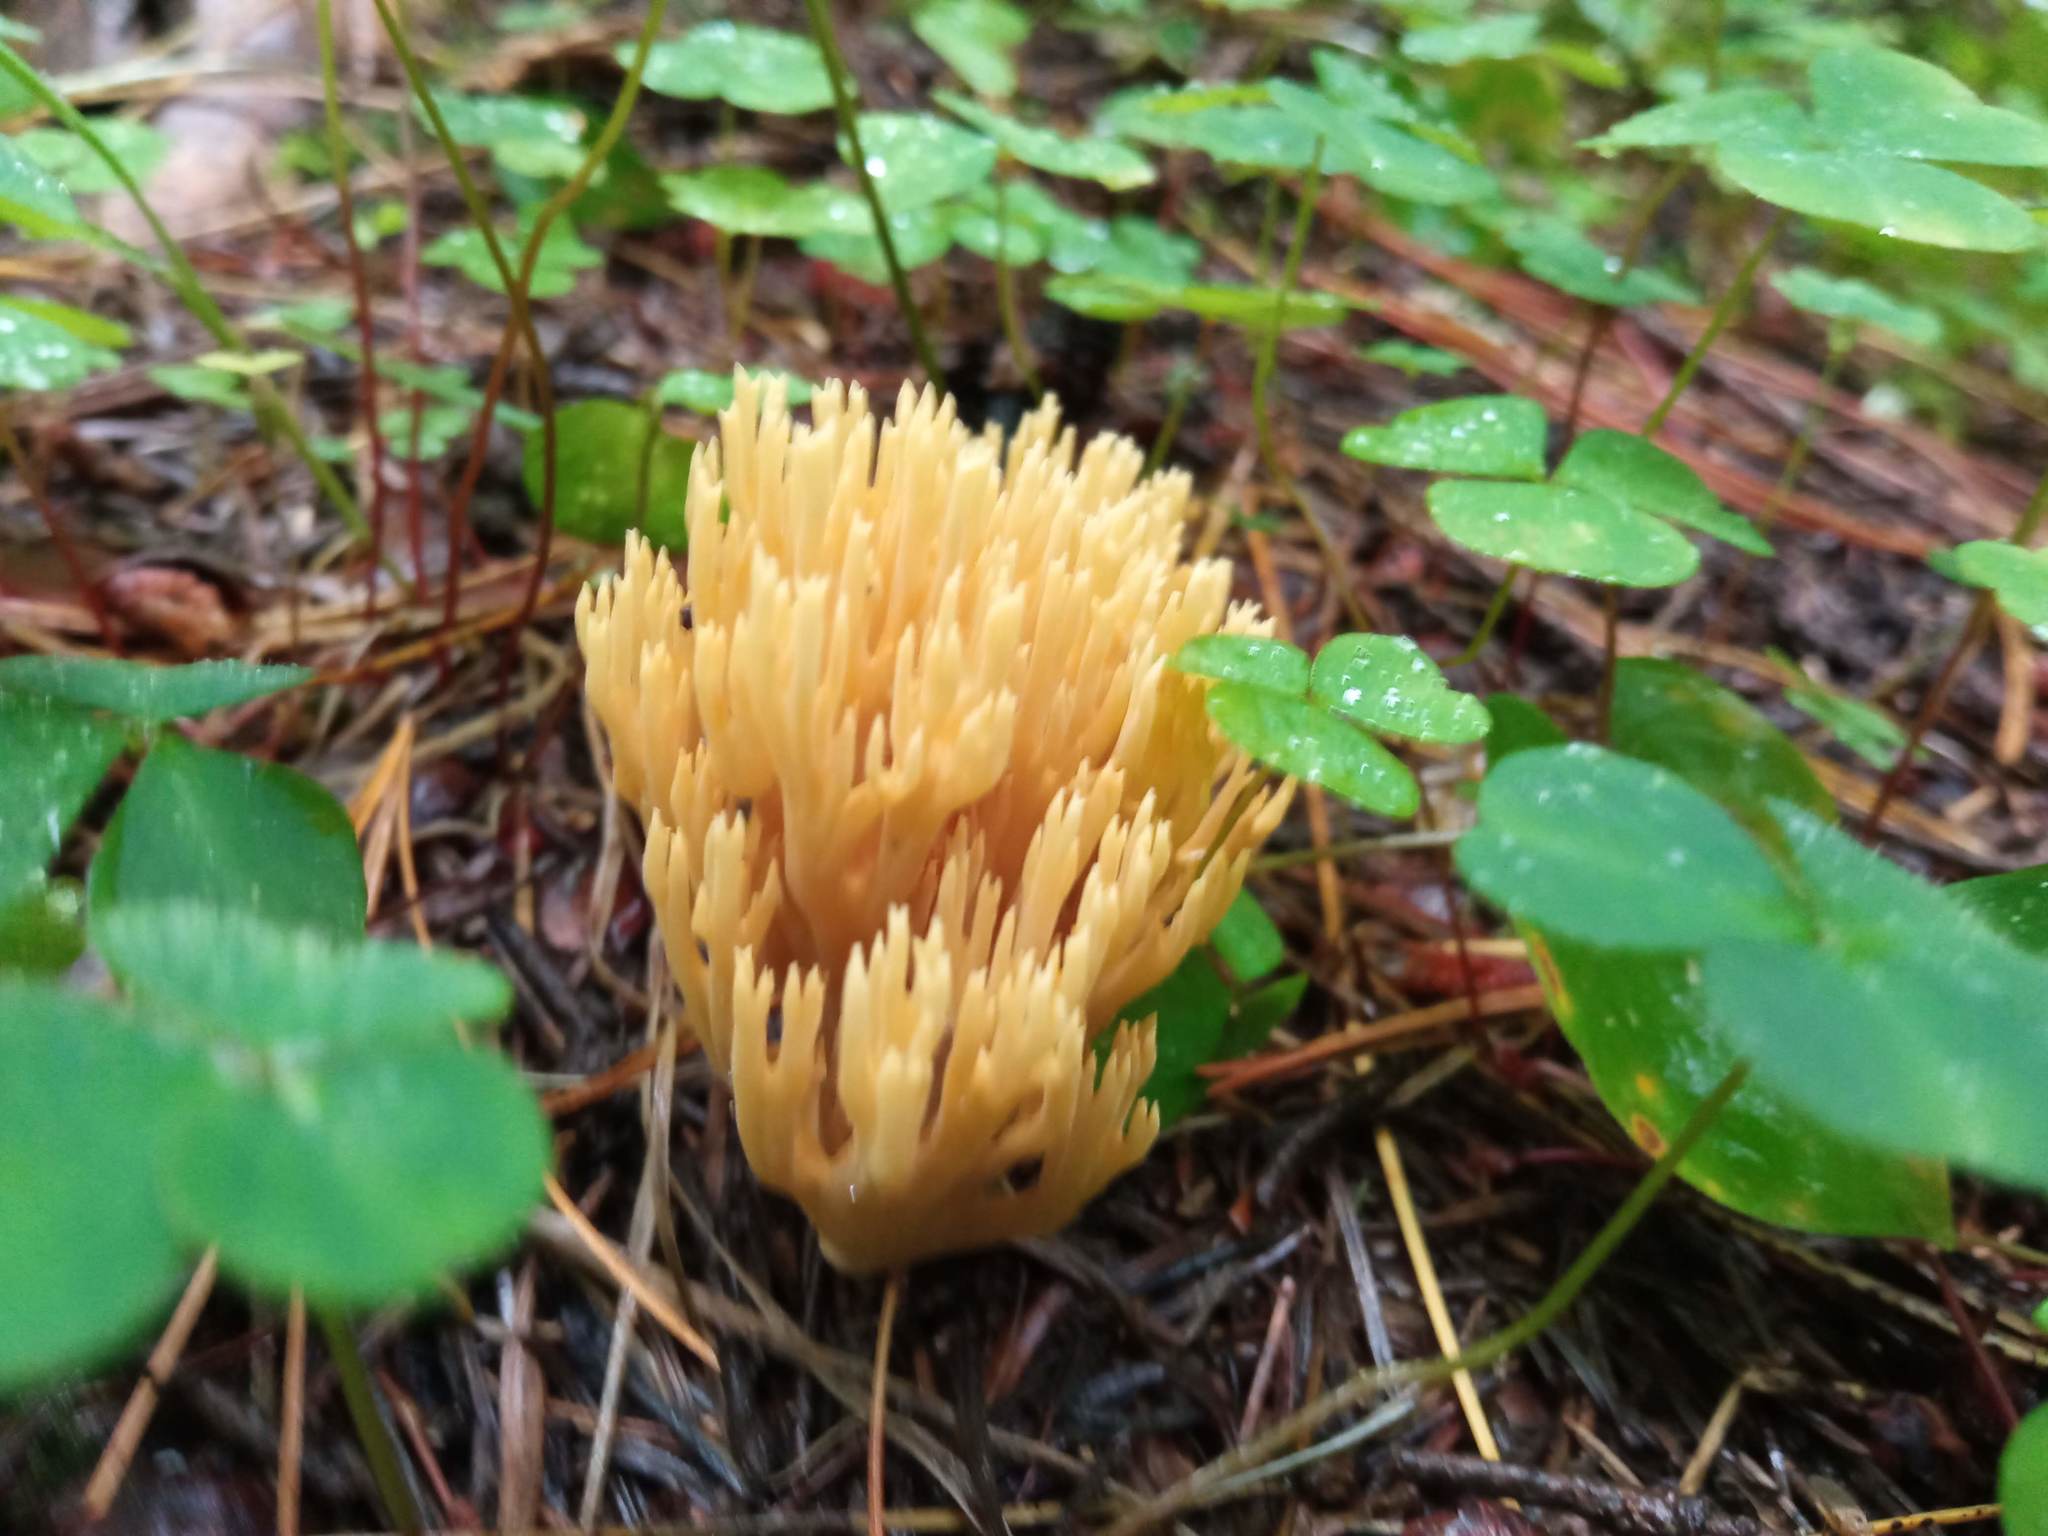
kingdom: Fungi
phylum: Basidiomycota
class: Agaricomycetes
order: Gomphales
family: Gomphaceae
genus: Ramaria
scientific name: Ramaria tsugina
